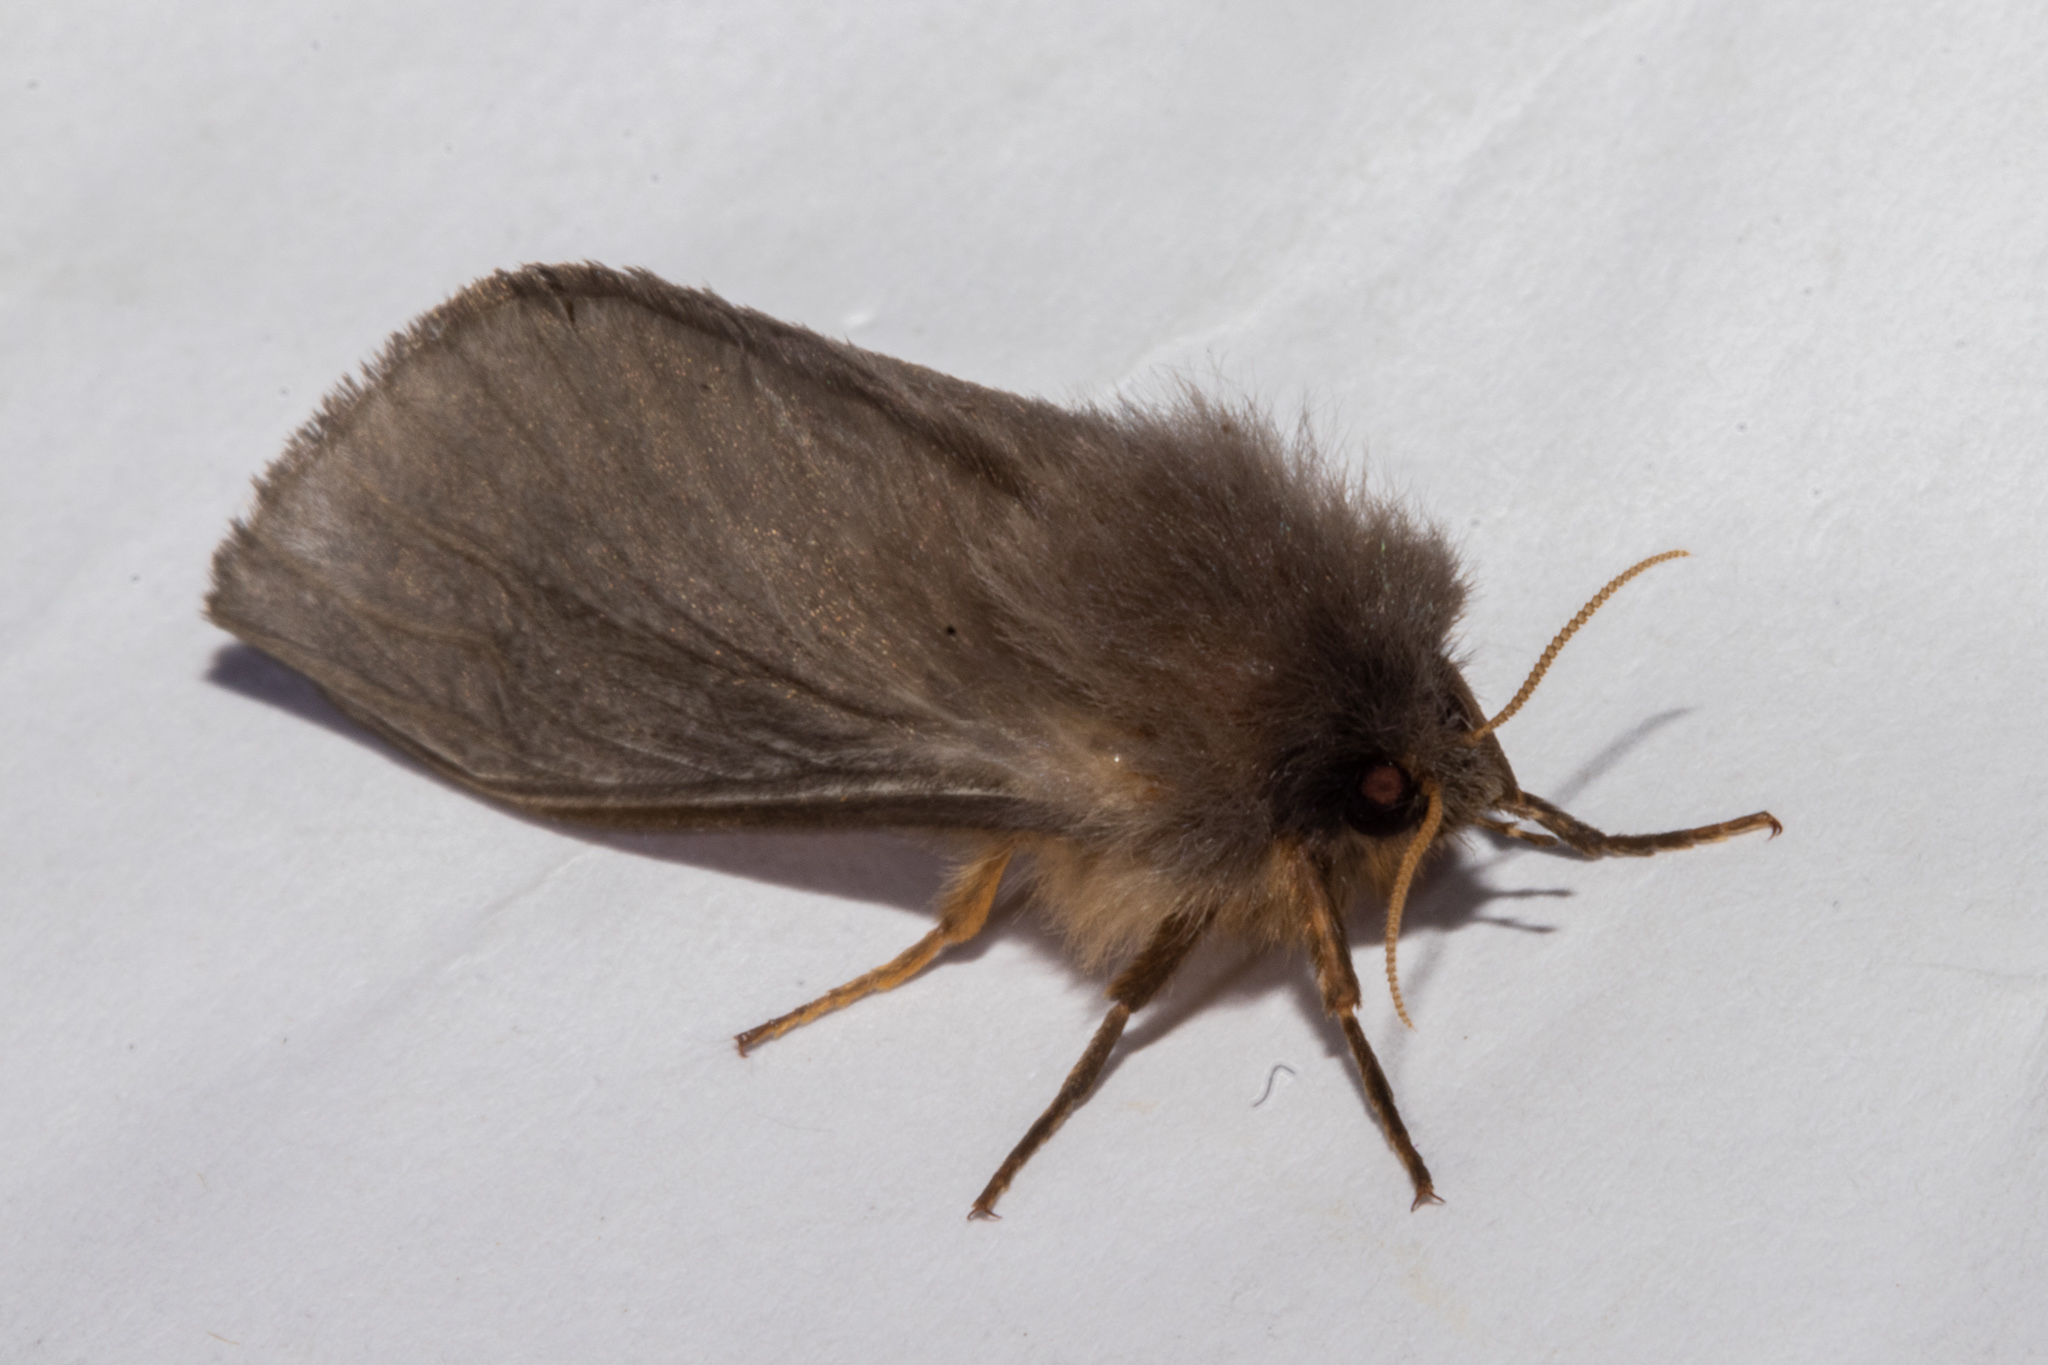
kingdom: Animalia
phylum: Arthropoda
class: Insecta
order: Lepidoptera
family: Hepialidae
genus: Cladoxycanus
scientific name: Cladoxycanus minos
